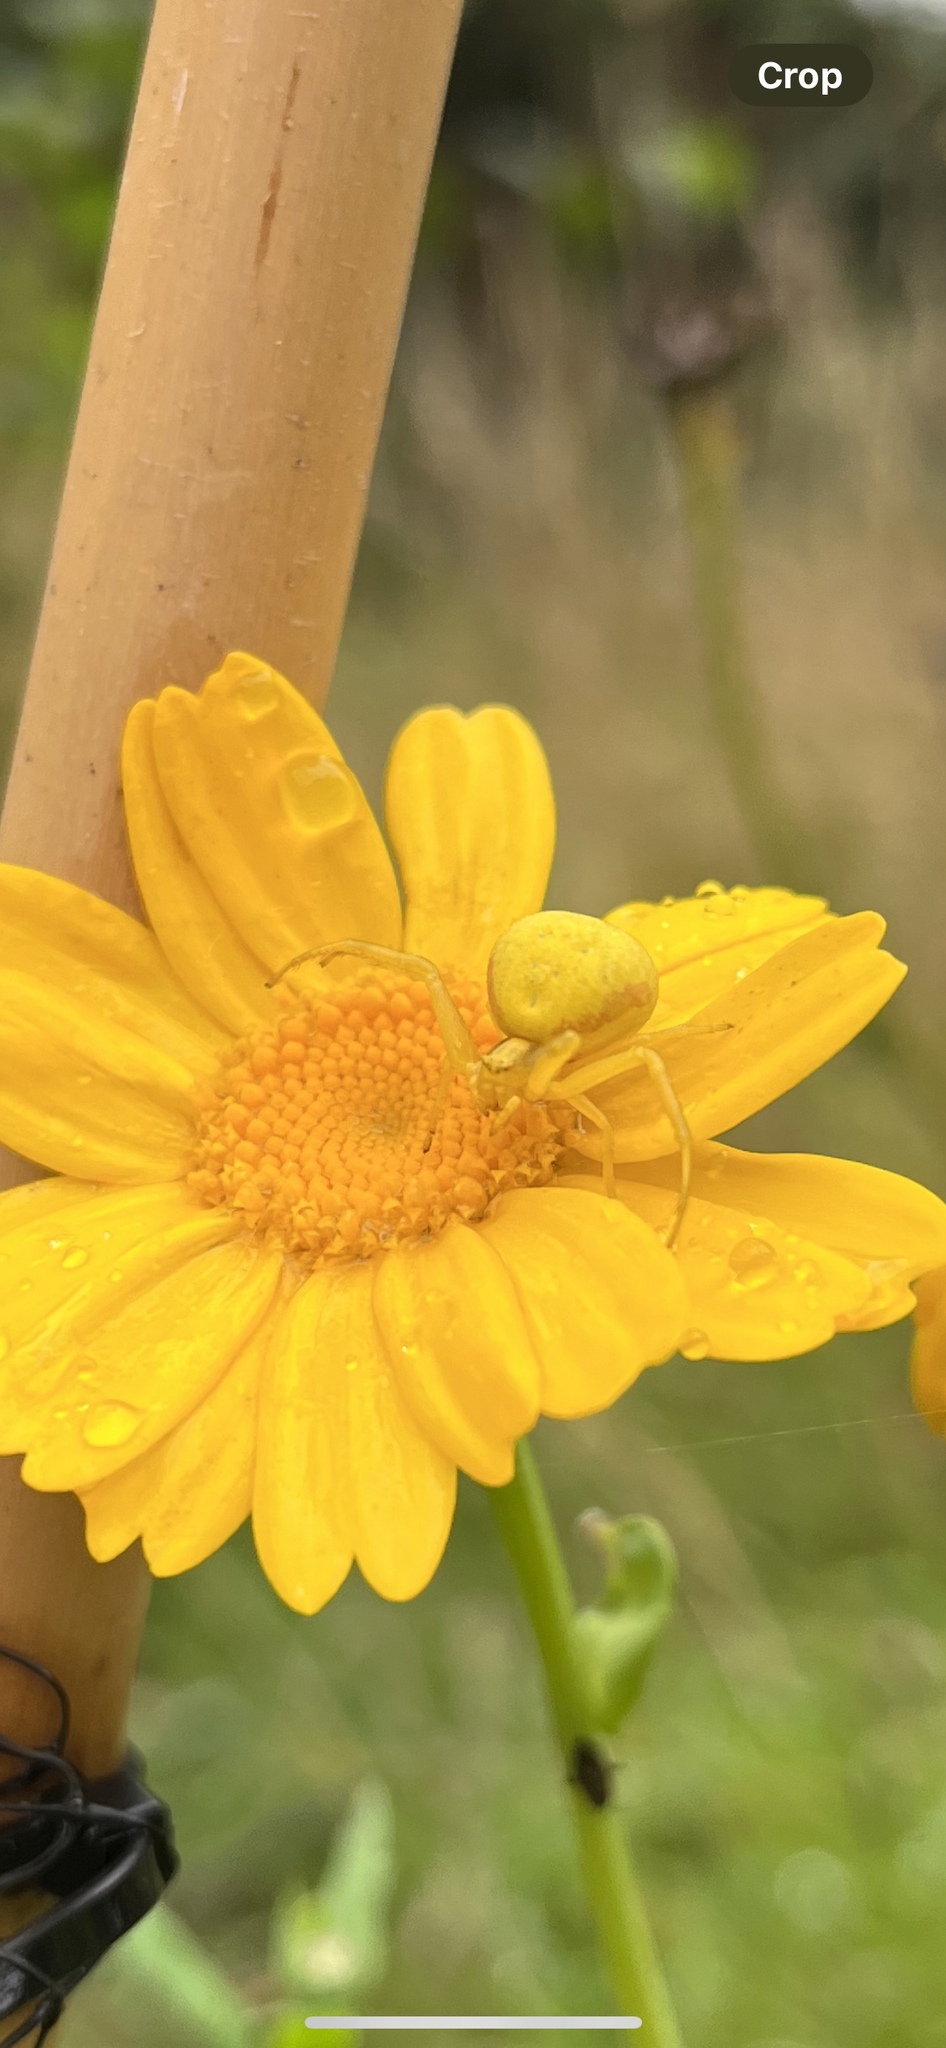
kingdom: Animalia
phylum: Arthropoda
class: Arachnida
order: Araneae
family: Thomisidae
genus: Misumena
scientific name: Misumena vatia
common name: Goldenrod crab spider
